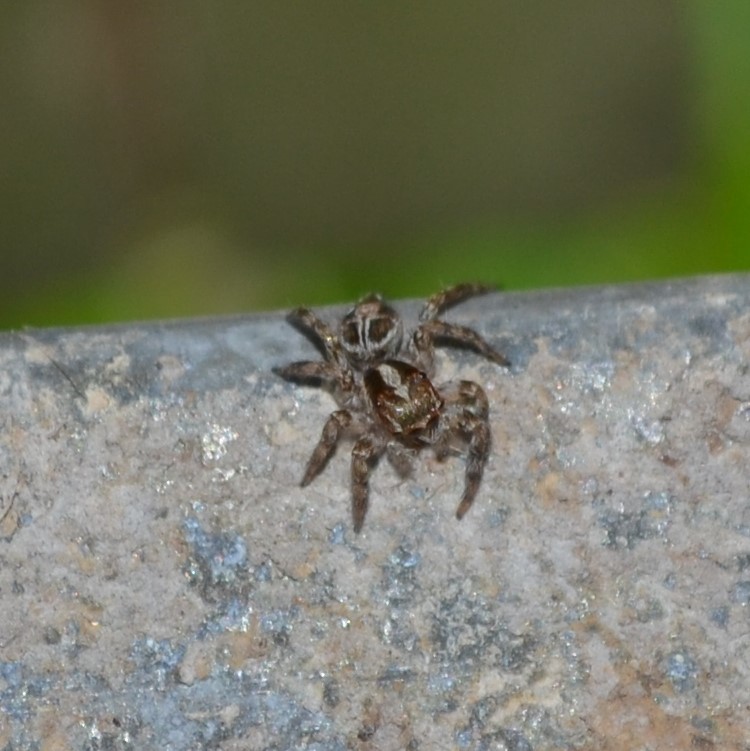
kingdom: Animalia
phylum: Arthropoda
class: Arachnida
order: Araneae
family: Salticidae
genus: Plexippus
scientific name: Plexippus paykulli
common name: Pantropical jumper
